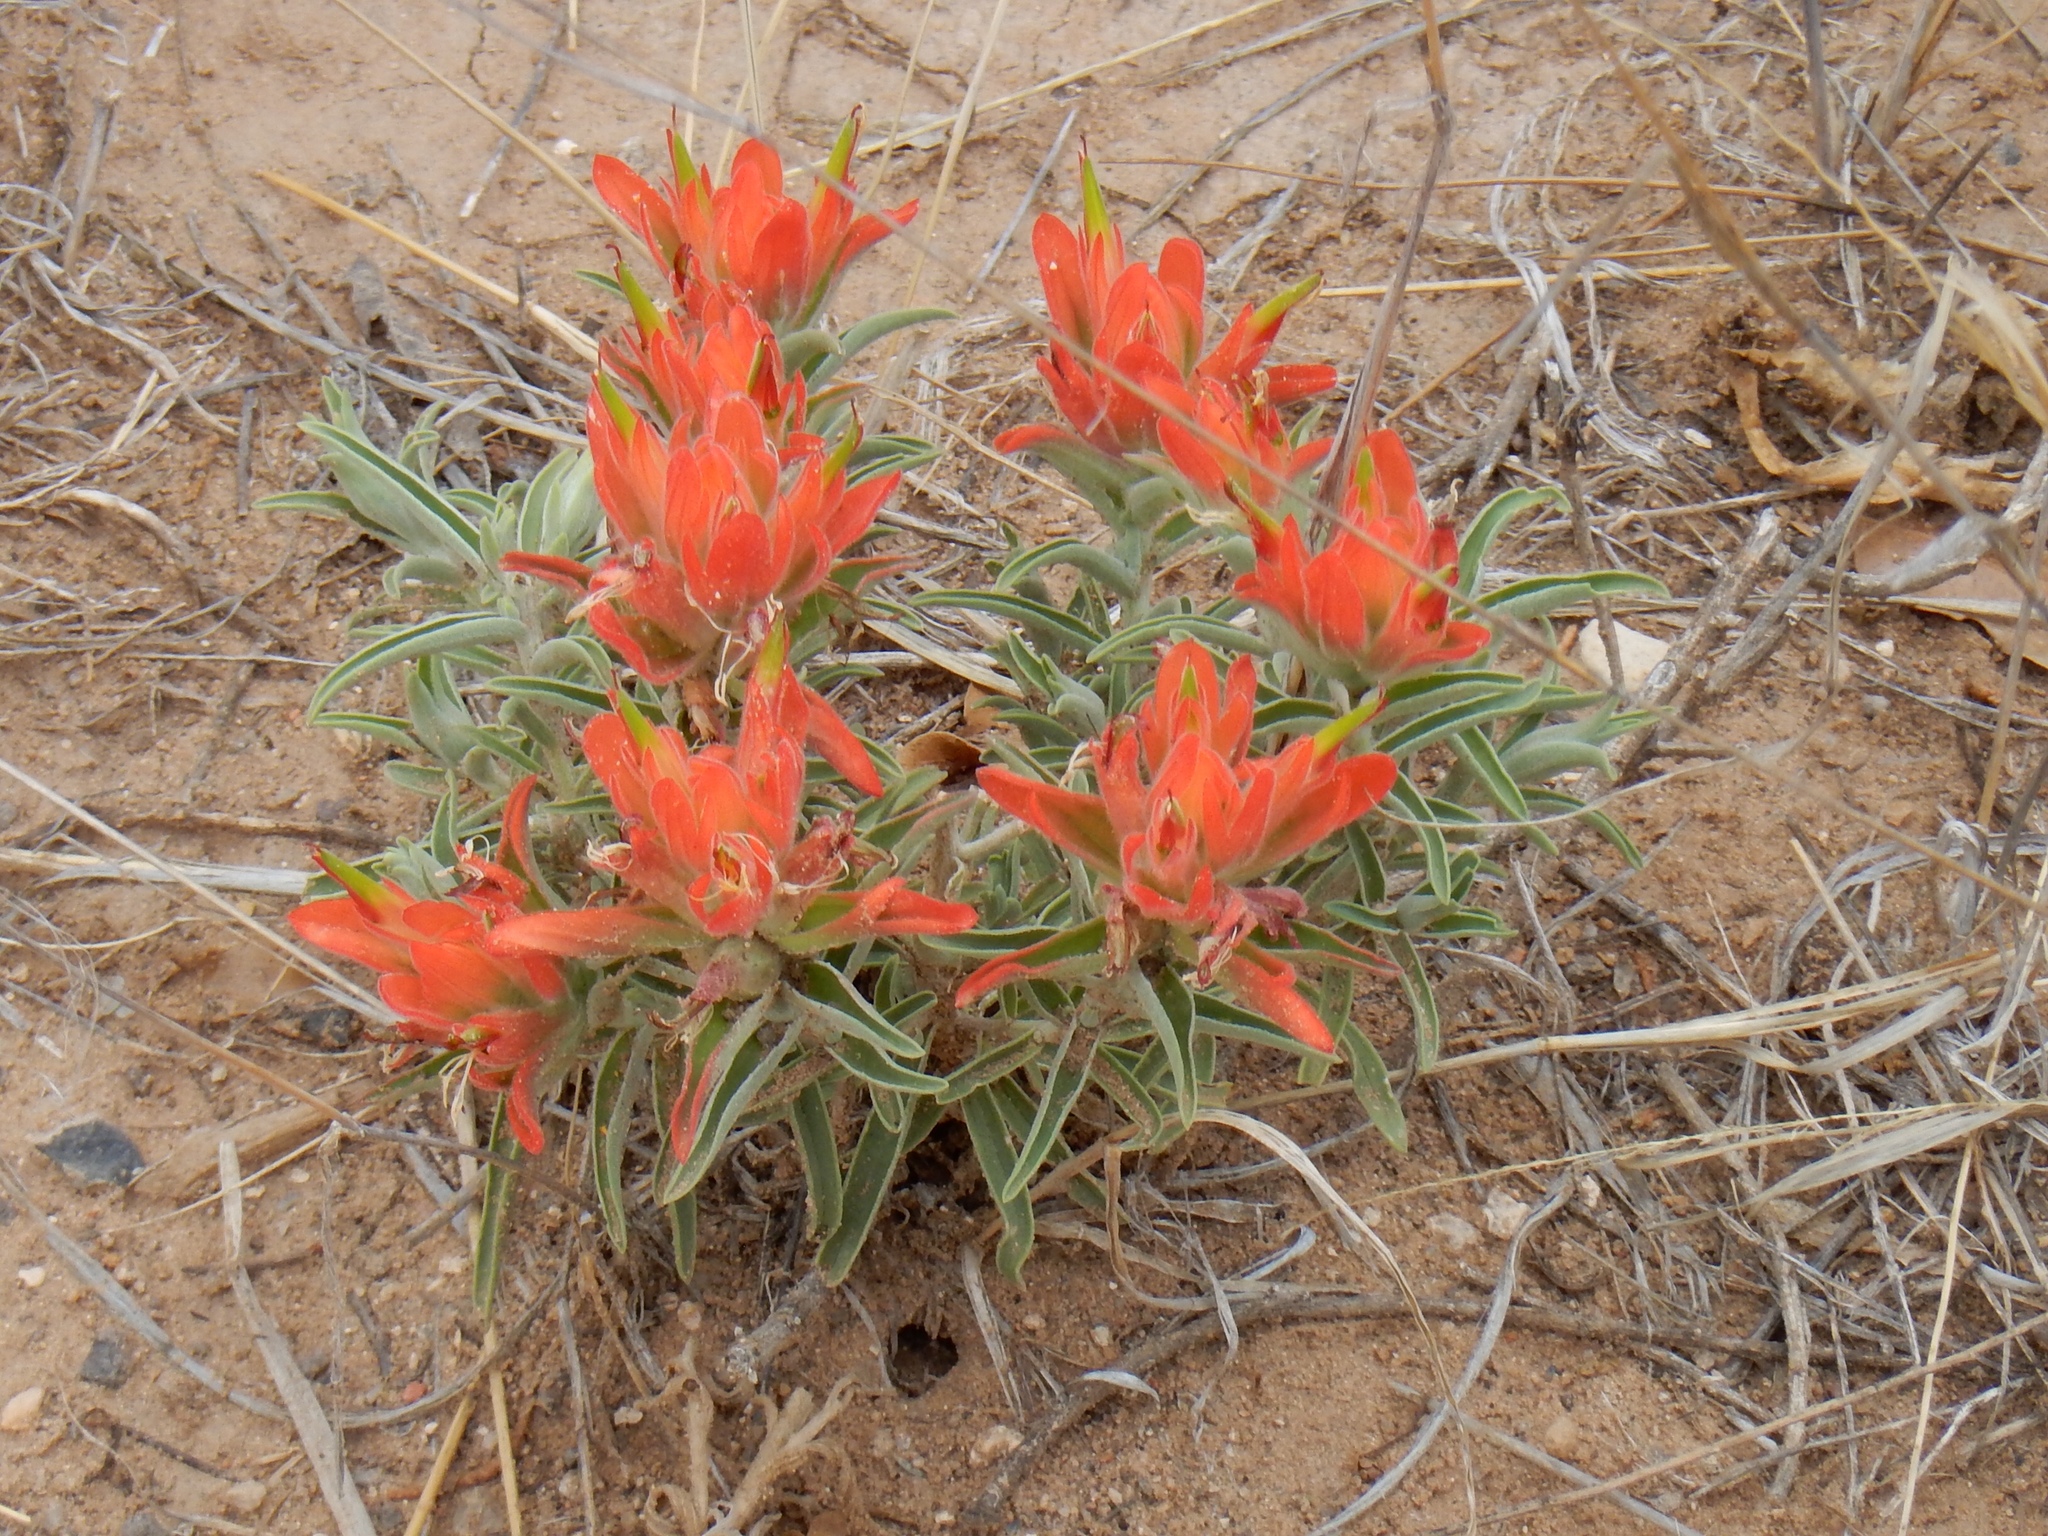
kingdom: Plantae
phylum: Tracheophyta
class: Magnoliopsida
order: Lamiales
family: Orobanchaceae
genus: Castilleja
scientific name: Castilleja integra
